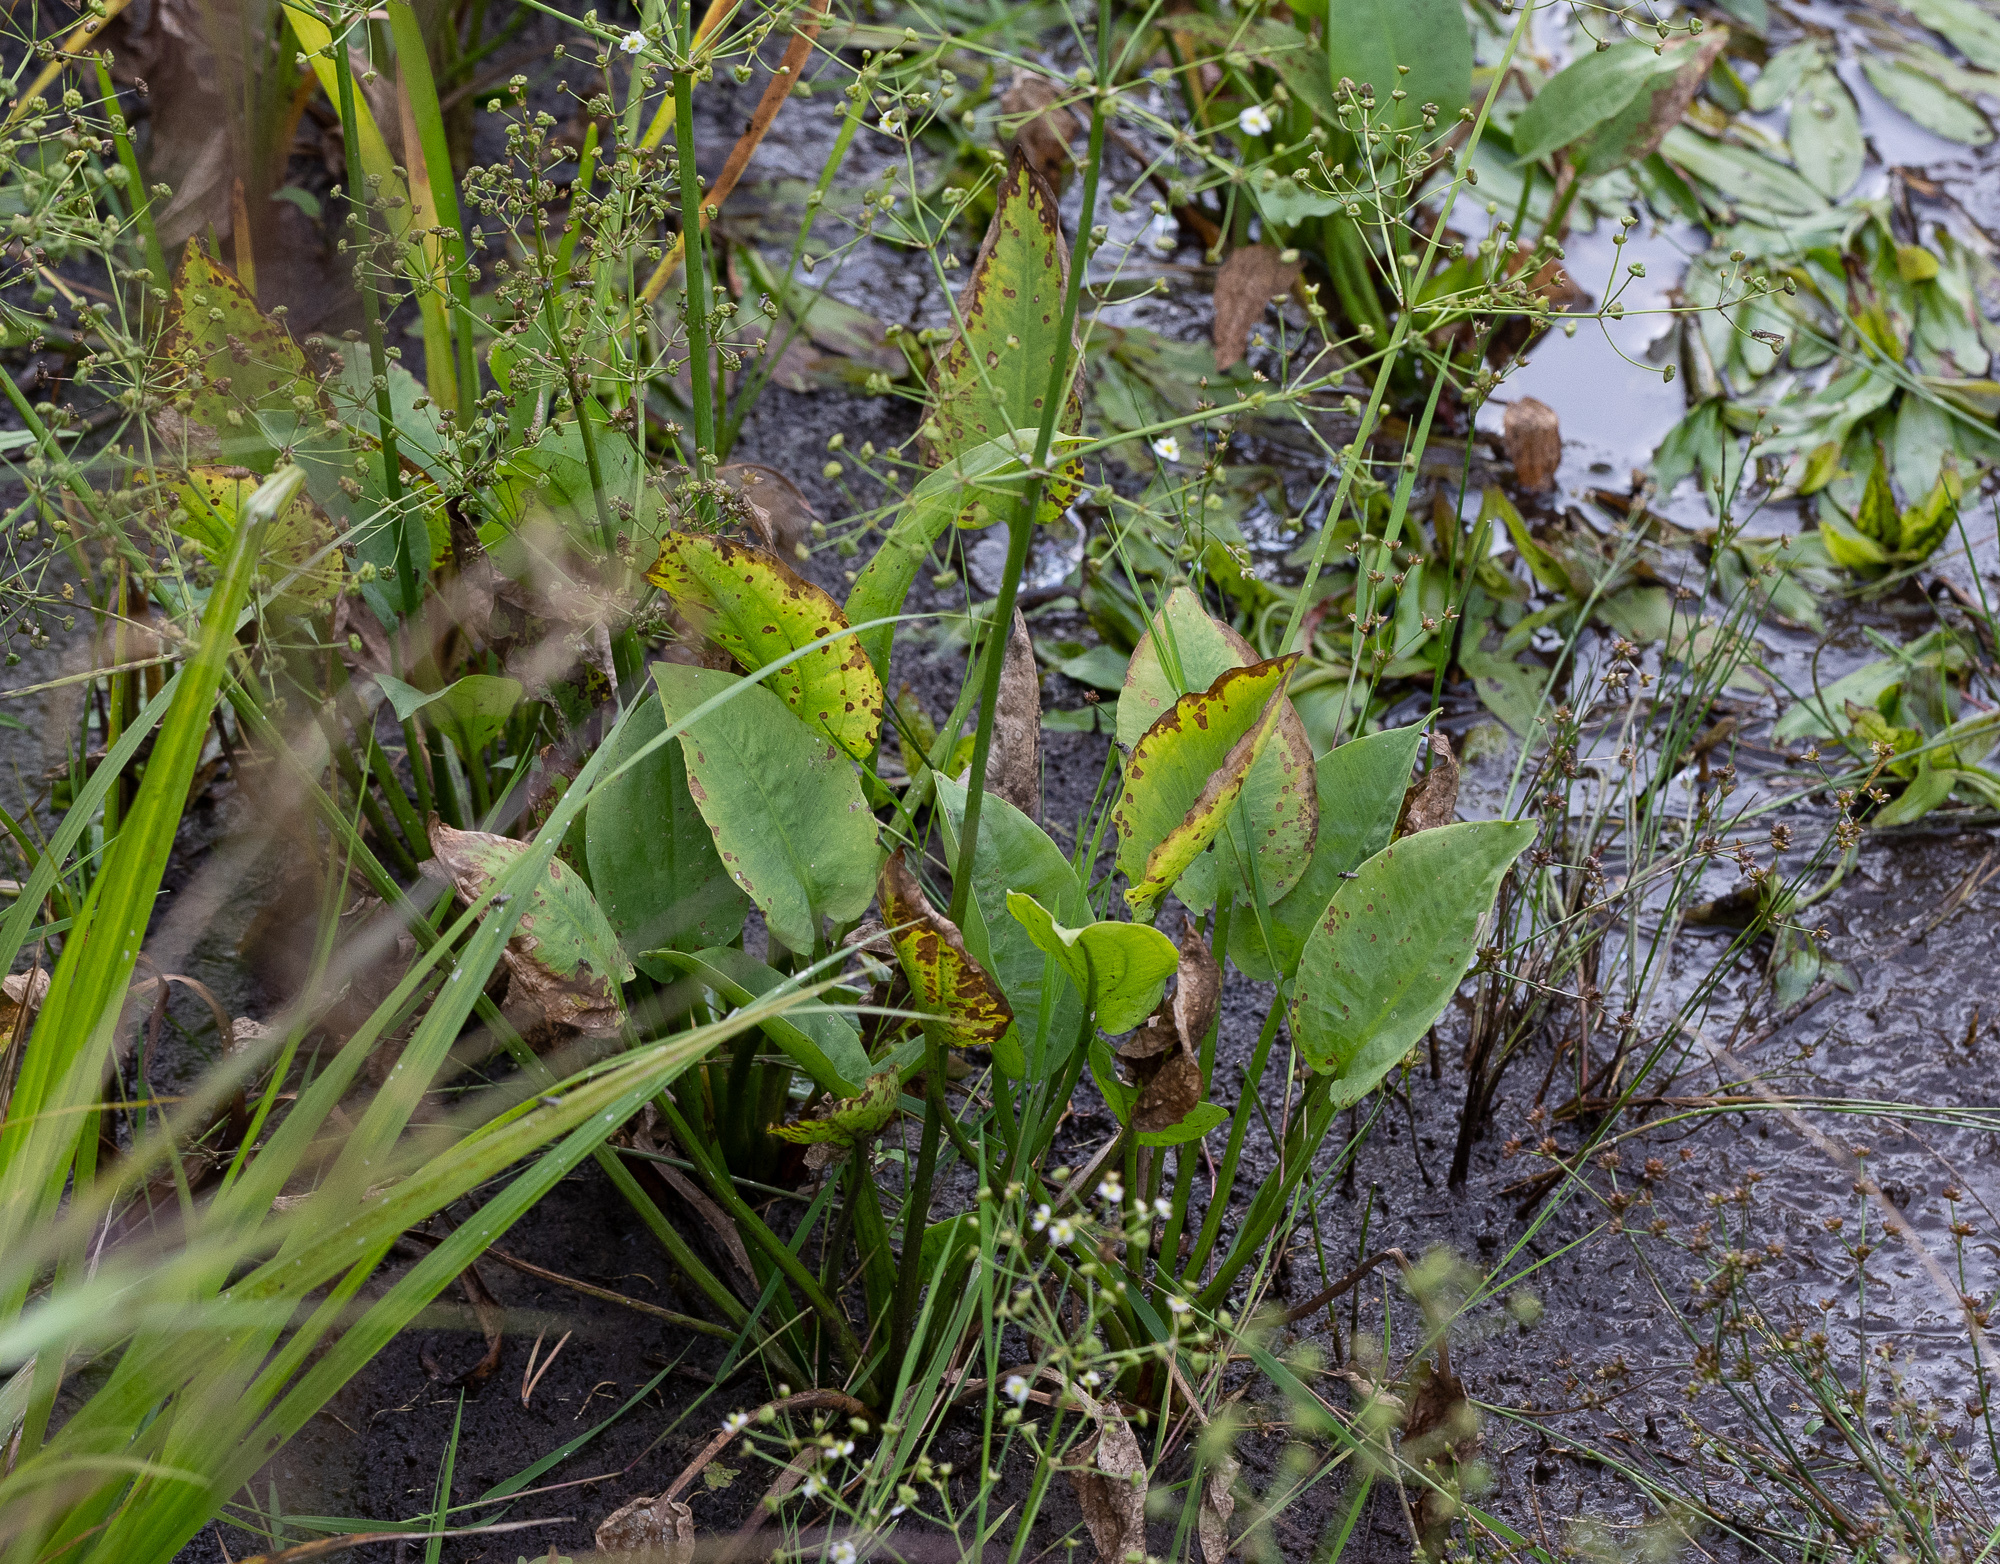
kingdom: Plantae
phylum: Tracheophyta
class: Liliopsida
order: Alismatales
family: Alismataceae
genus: Alisma
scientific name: Alisma plantago-aquatica
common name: Water-plantain
